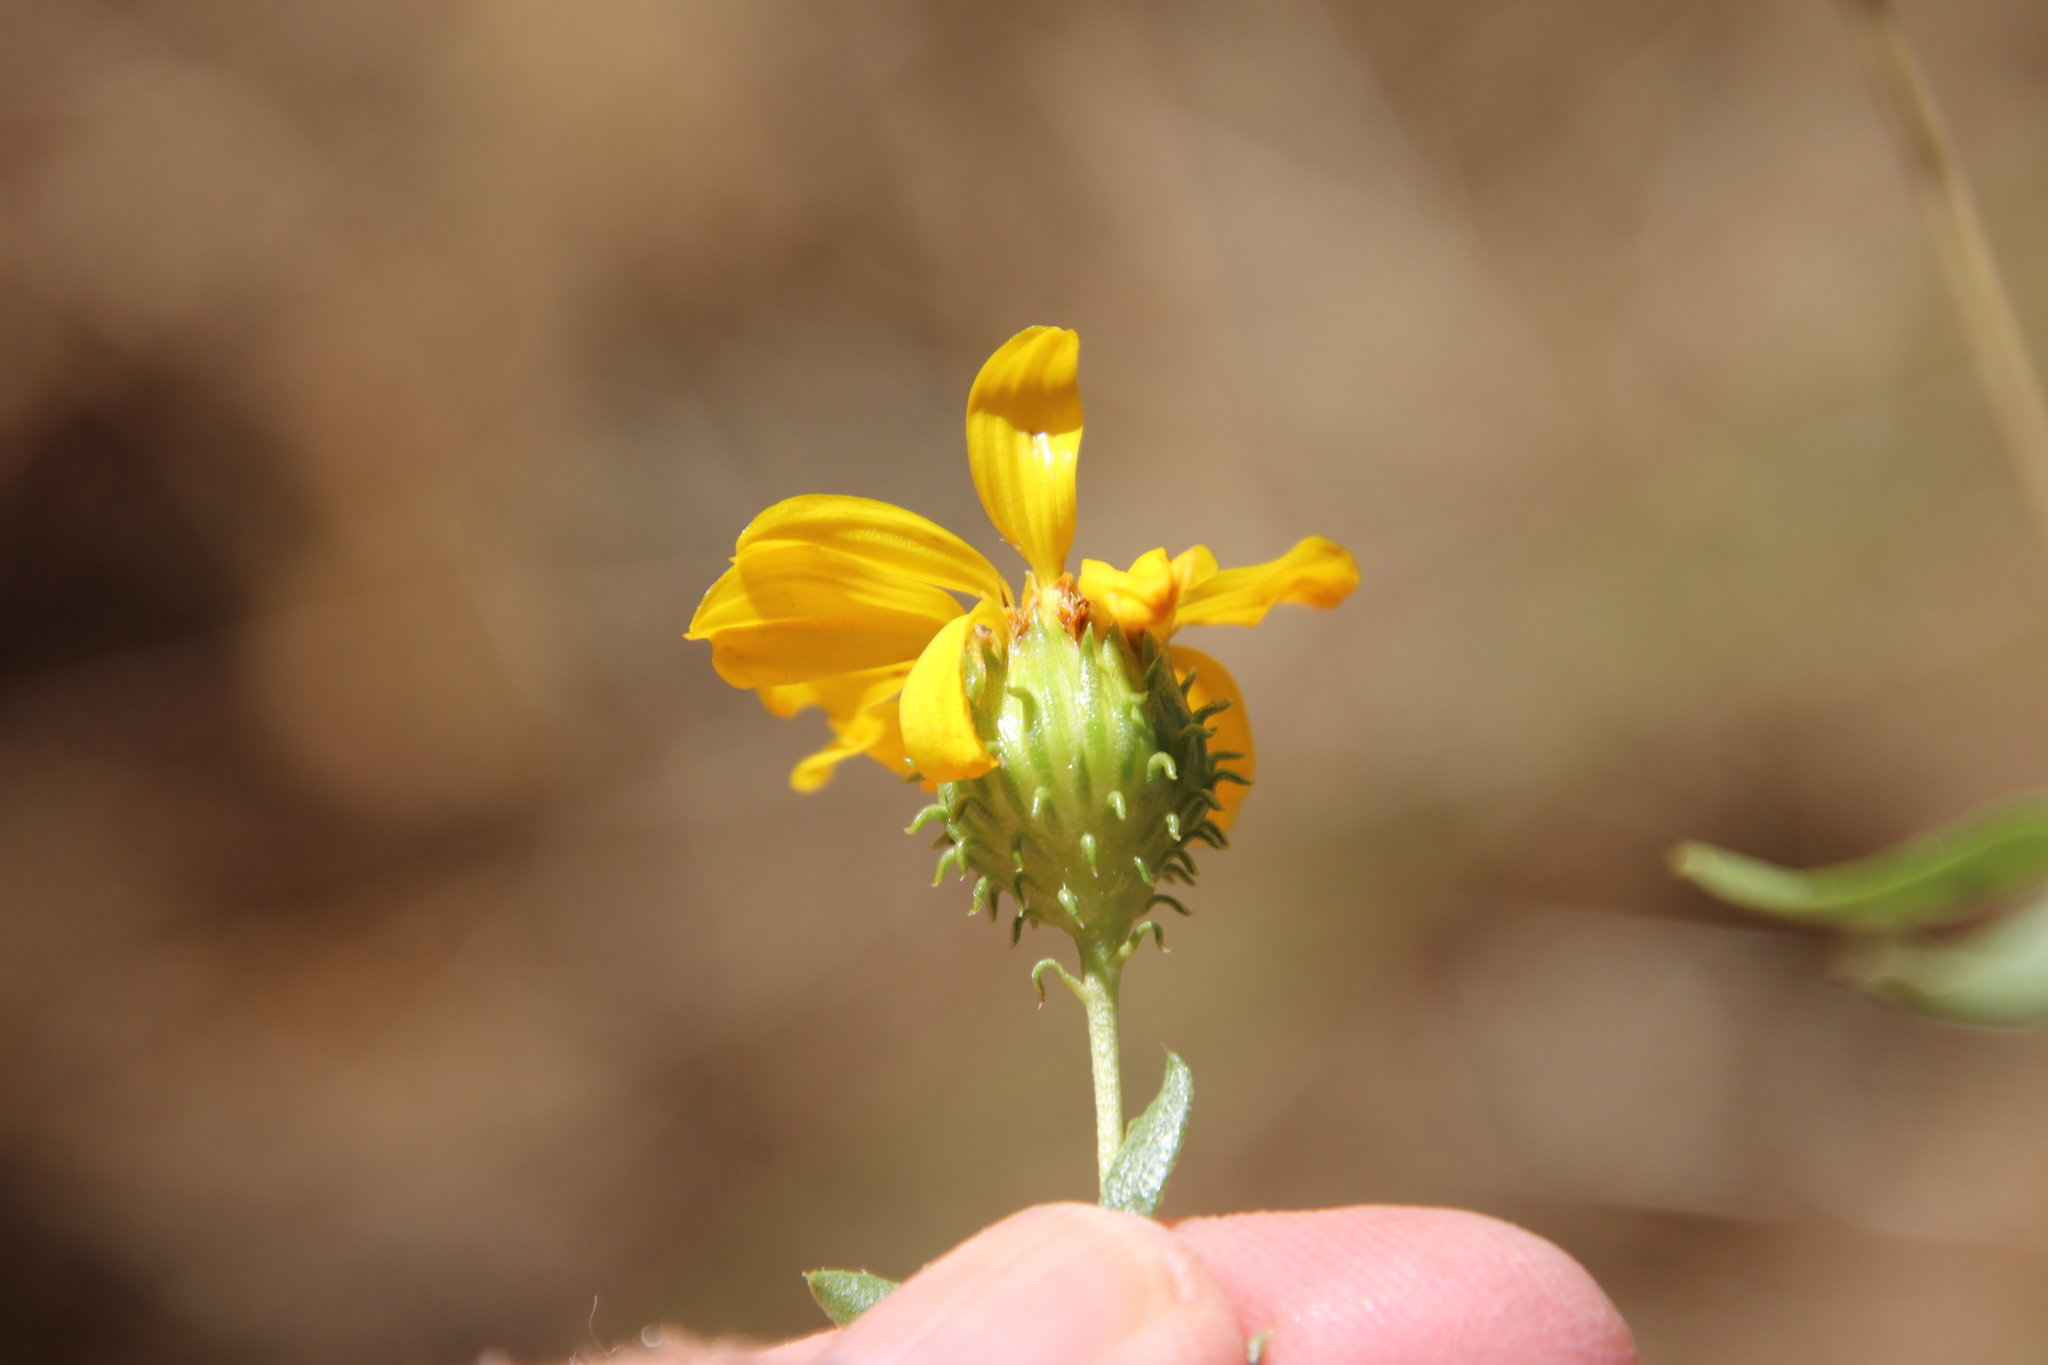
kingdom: Plantae
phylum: Tracheophyta
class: Magnoliopsida
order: Asterales
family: Asteraceae
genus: Grindelia
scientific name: Grindelia hirsutula
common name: Hairy gumweed
